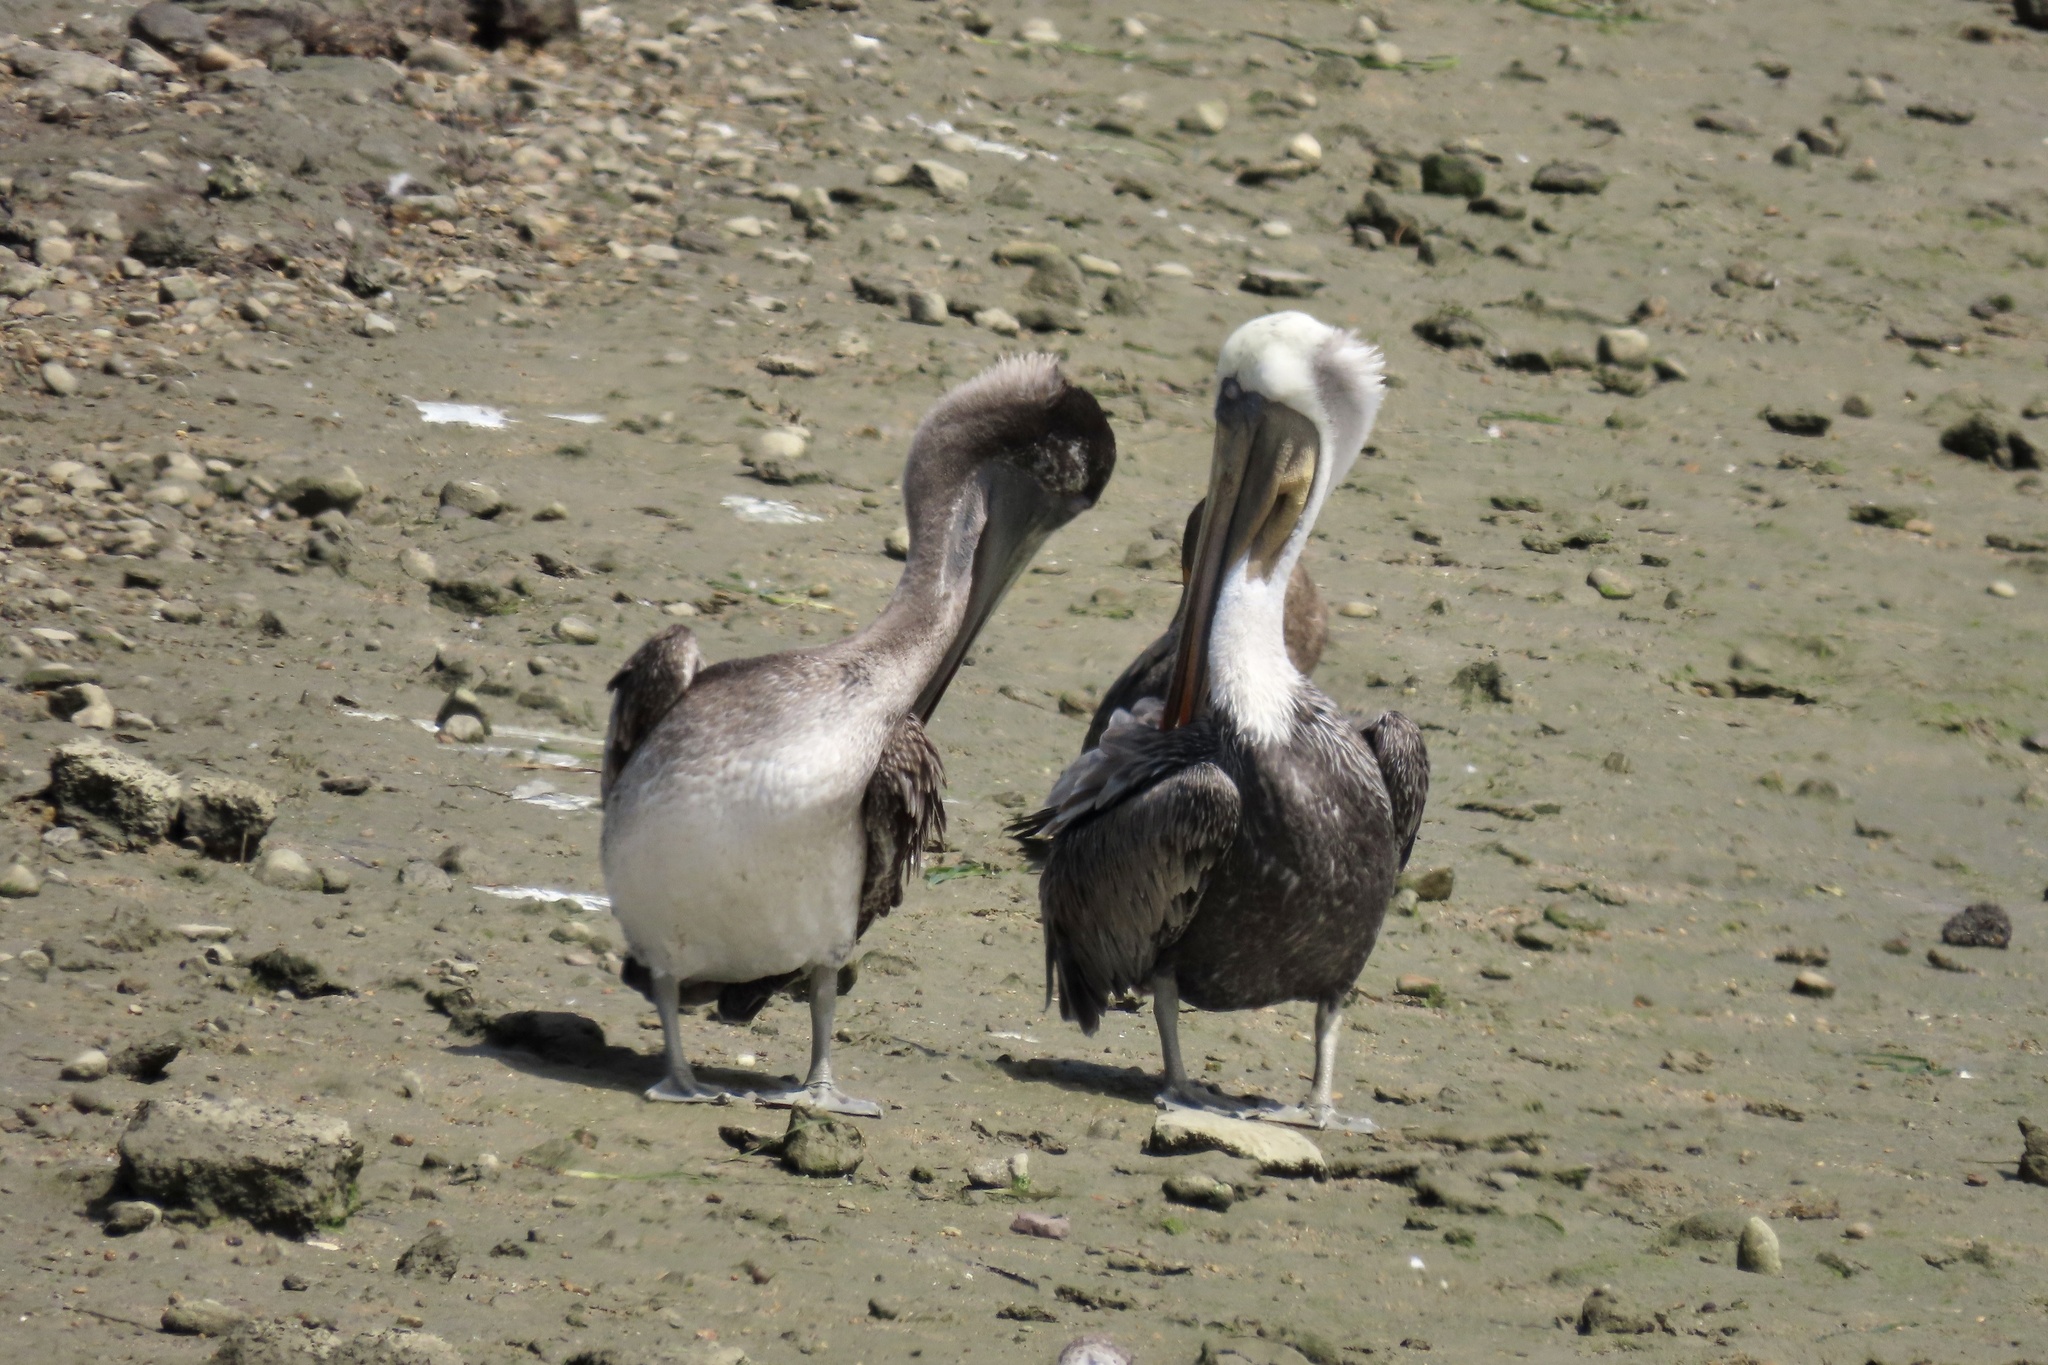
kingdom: Animalia
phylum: Chordata
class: Aves
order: Pelecaniformes
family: Pelecanidae
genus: Pelecanus
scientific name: Pelecanus occidentalis
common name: Brown pelican
